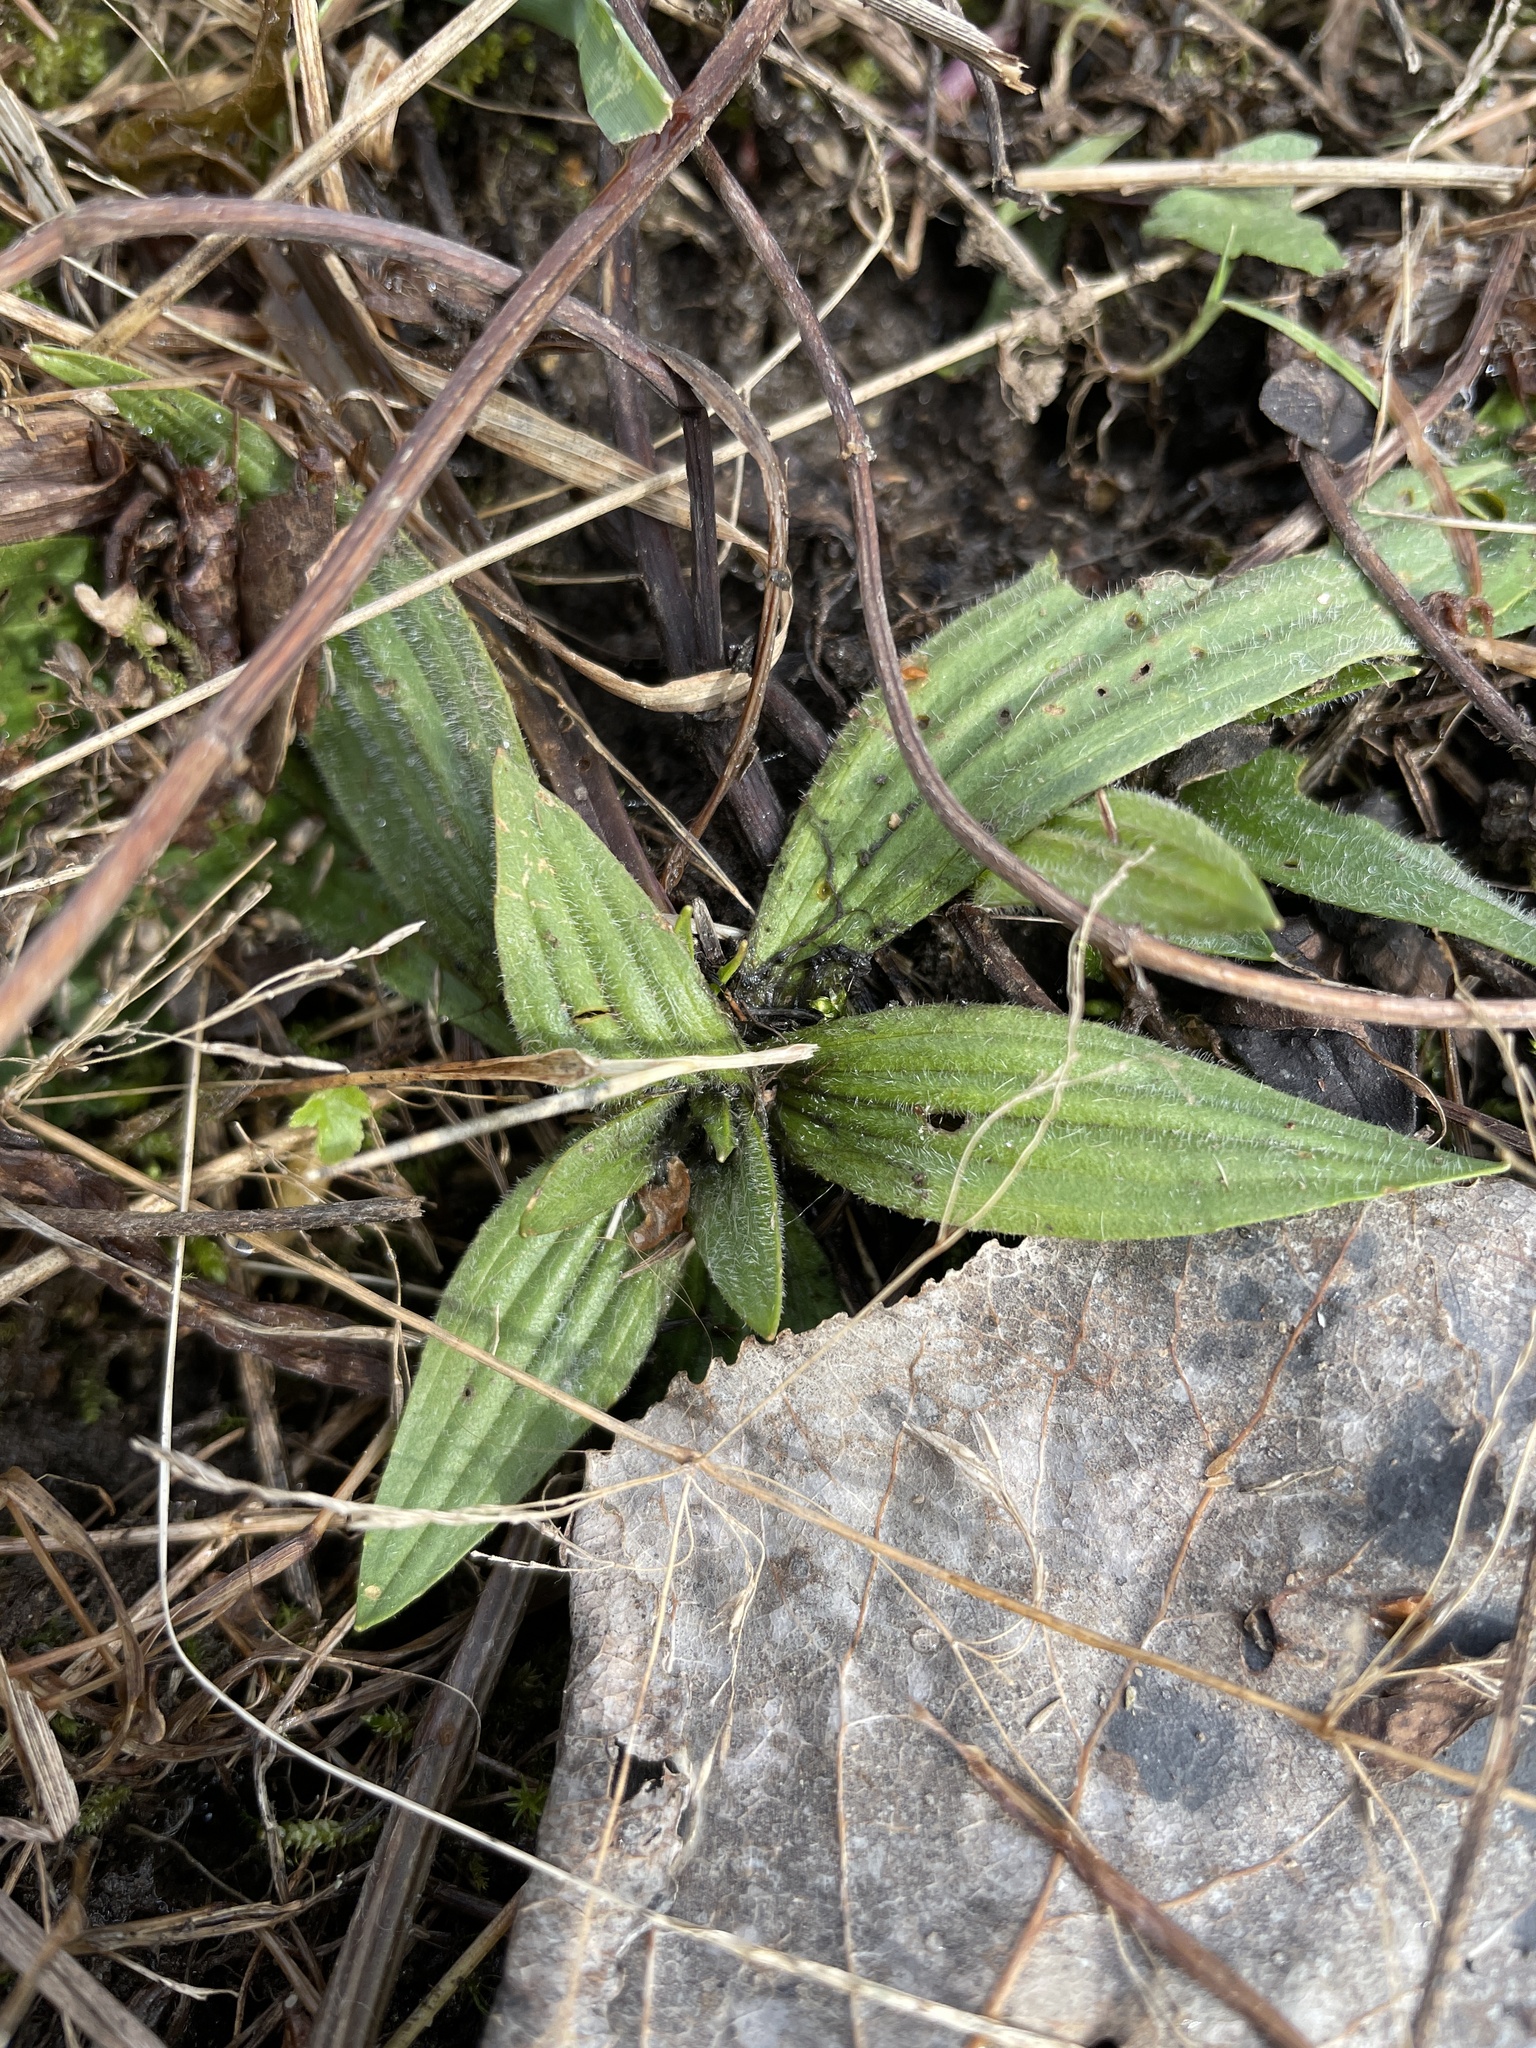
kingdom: Plantae
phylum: Tracheophyta
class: Magnoliopsida
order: Lamiales
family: Plantaginaceae
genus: Plantago
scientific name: Plantago lanceolata
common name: Ribwort plantain
